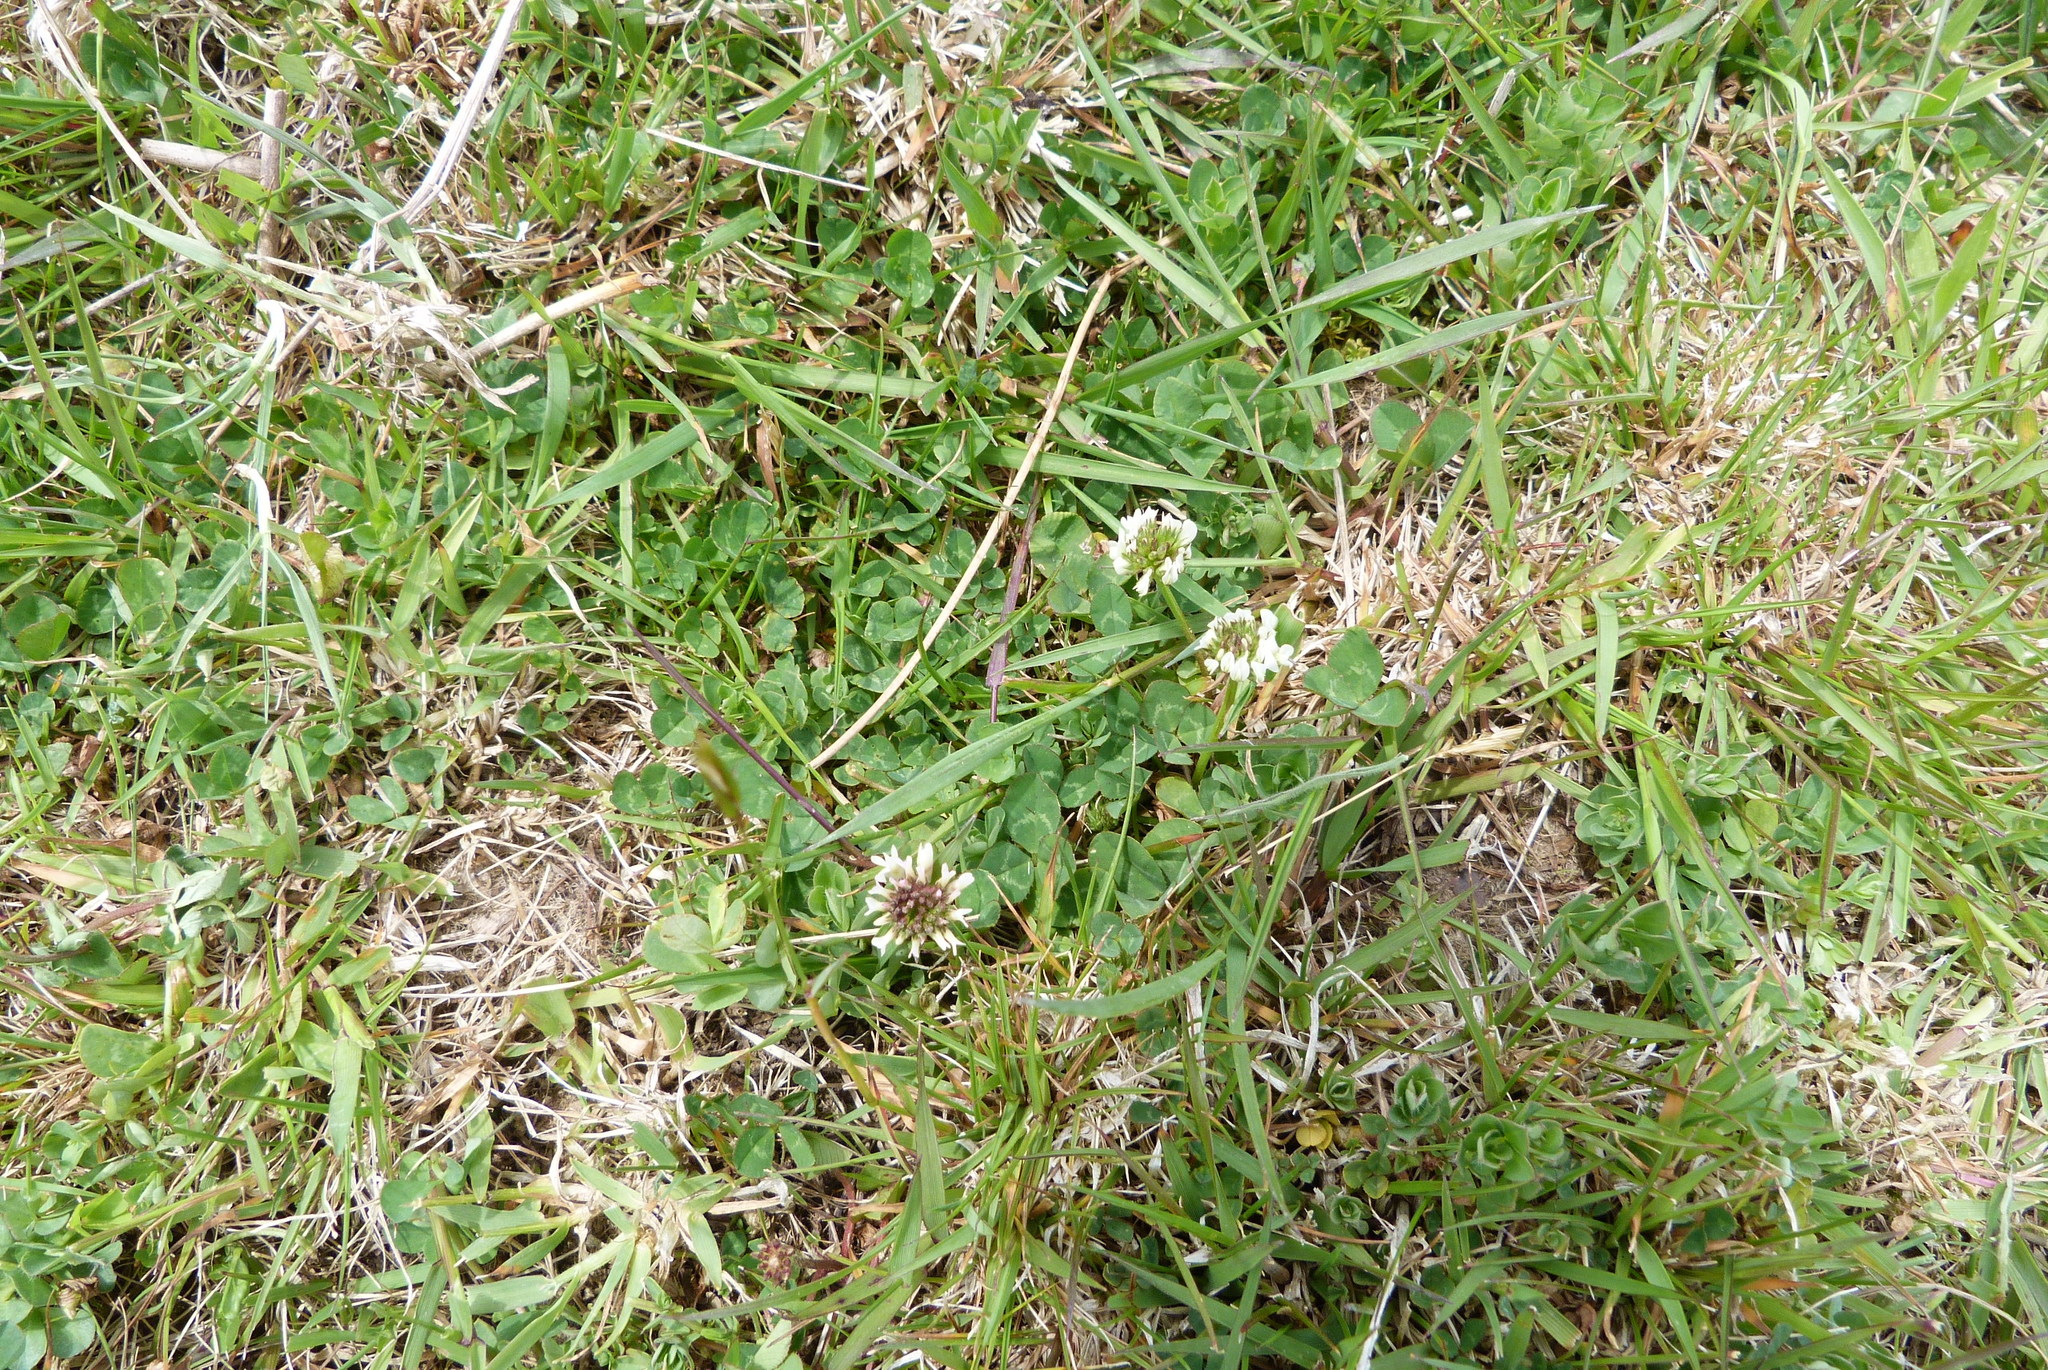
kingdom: Plantae
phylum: Tracheophyta
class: Magnoliopsida
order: Fabales
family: Fabaceae
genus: Trifolium
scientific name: Trifolium repens
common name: White clover
